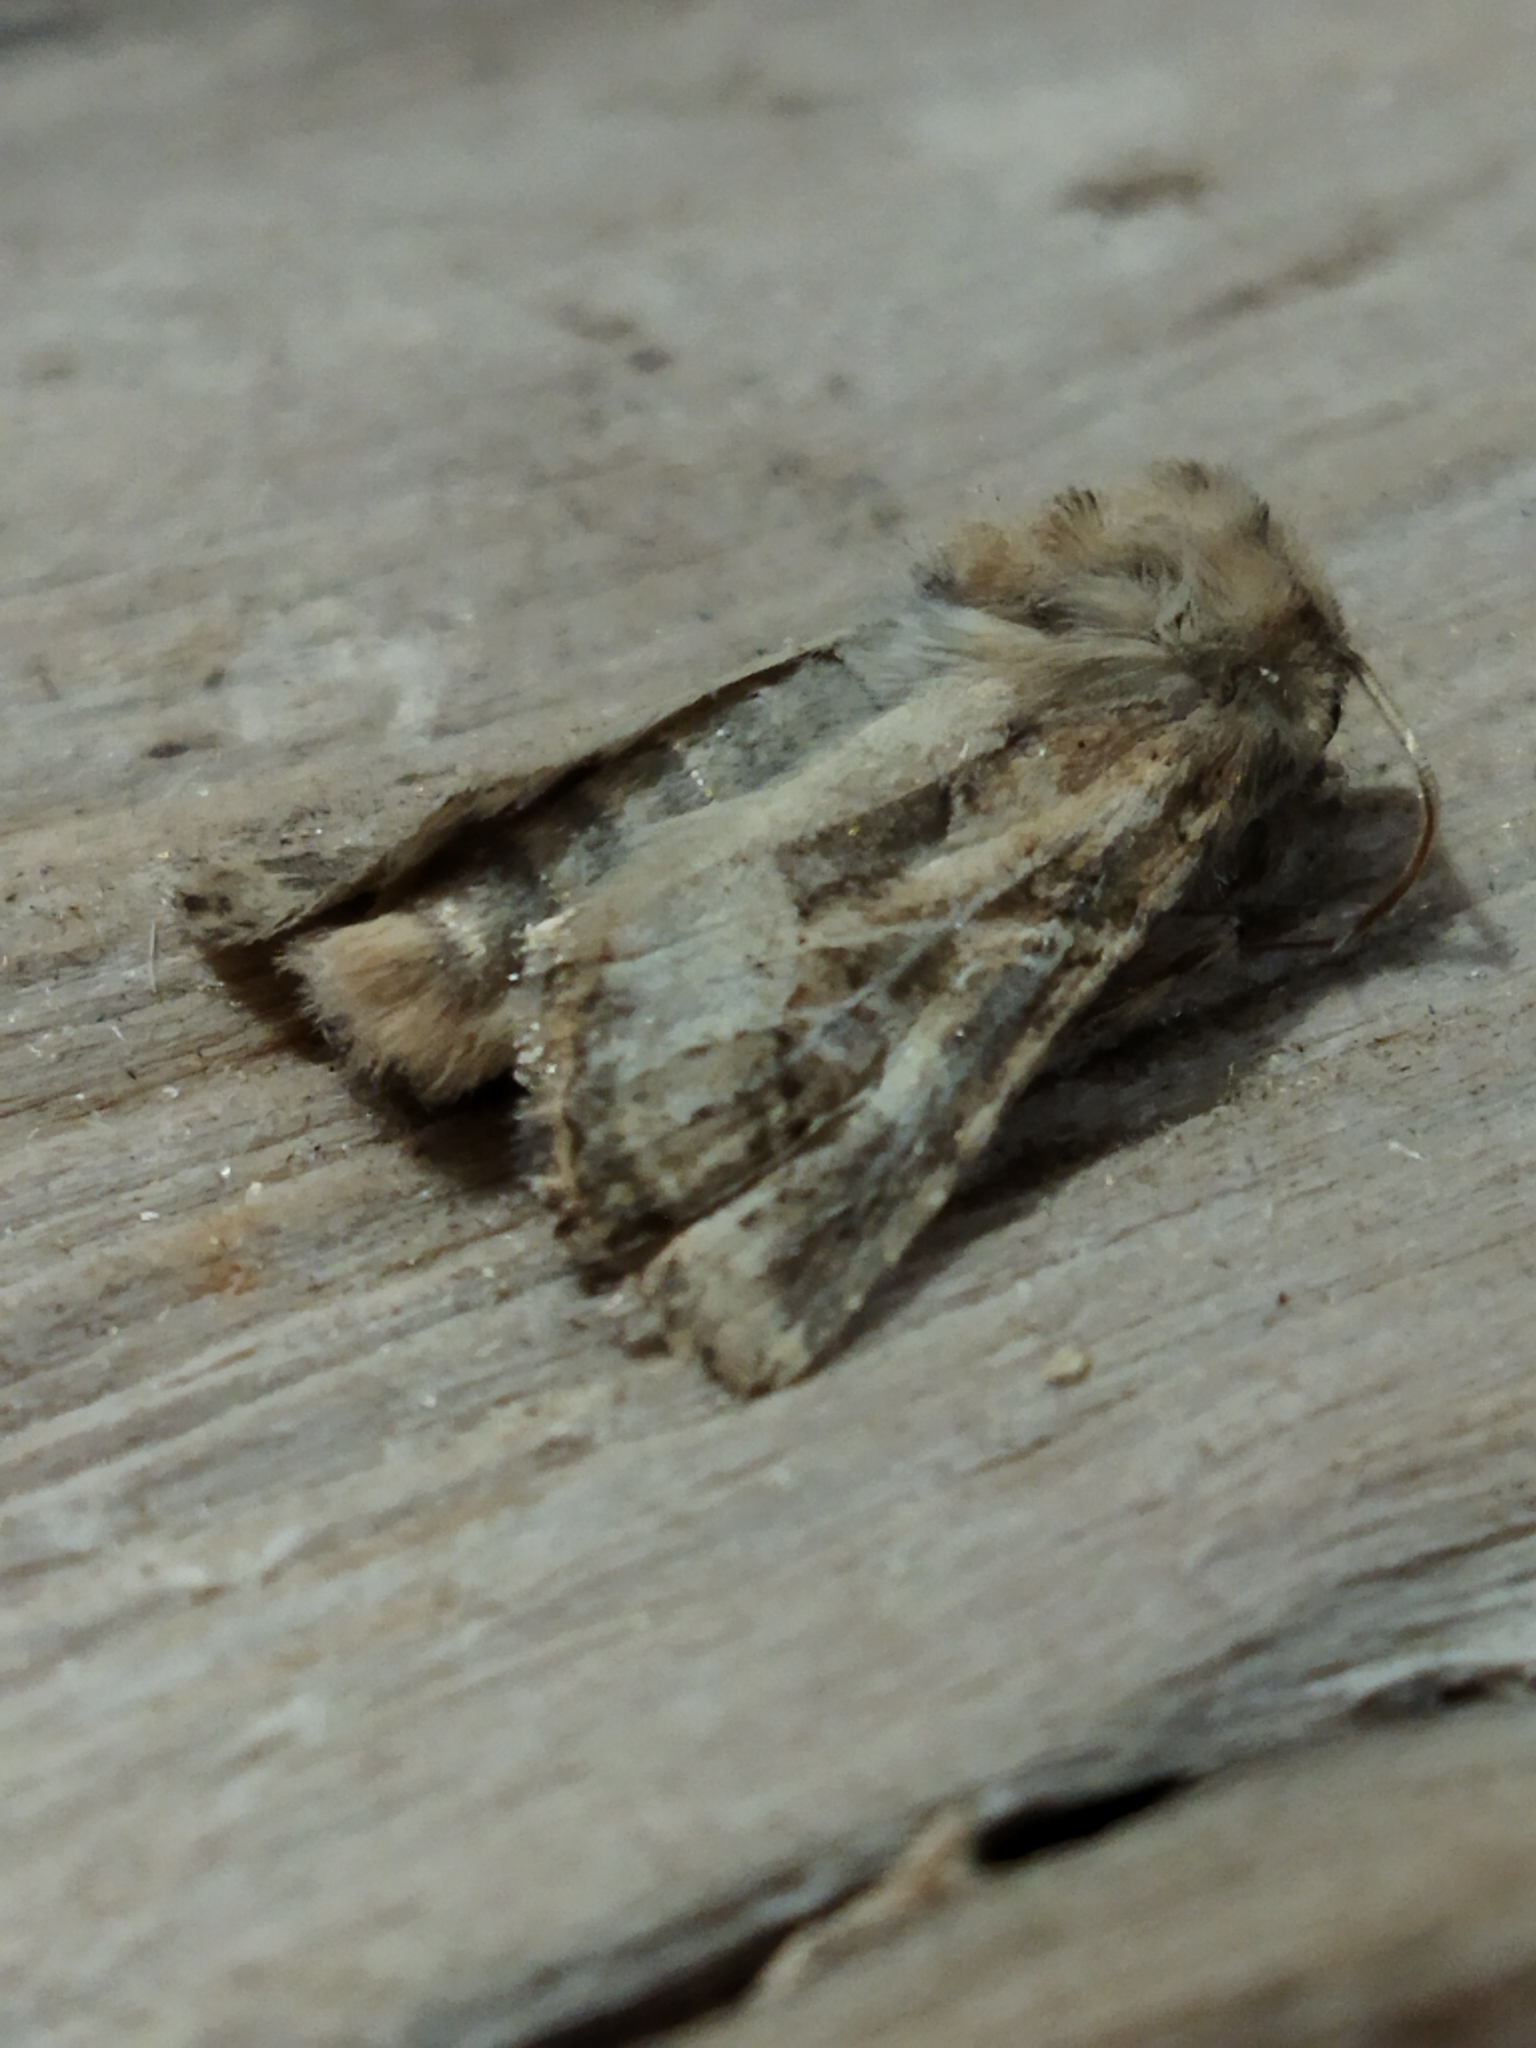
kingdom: Animalia
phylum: Arthropoda
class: Insecta
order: Lepidoptera
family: Noctuidae
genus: Luperina
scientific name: Luperina dumerilii
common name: Dumeril's rustic
